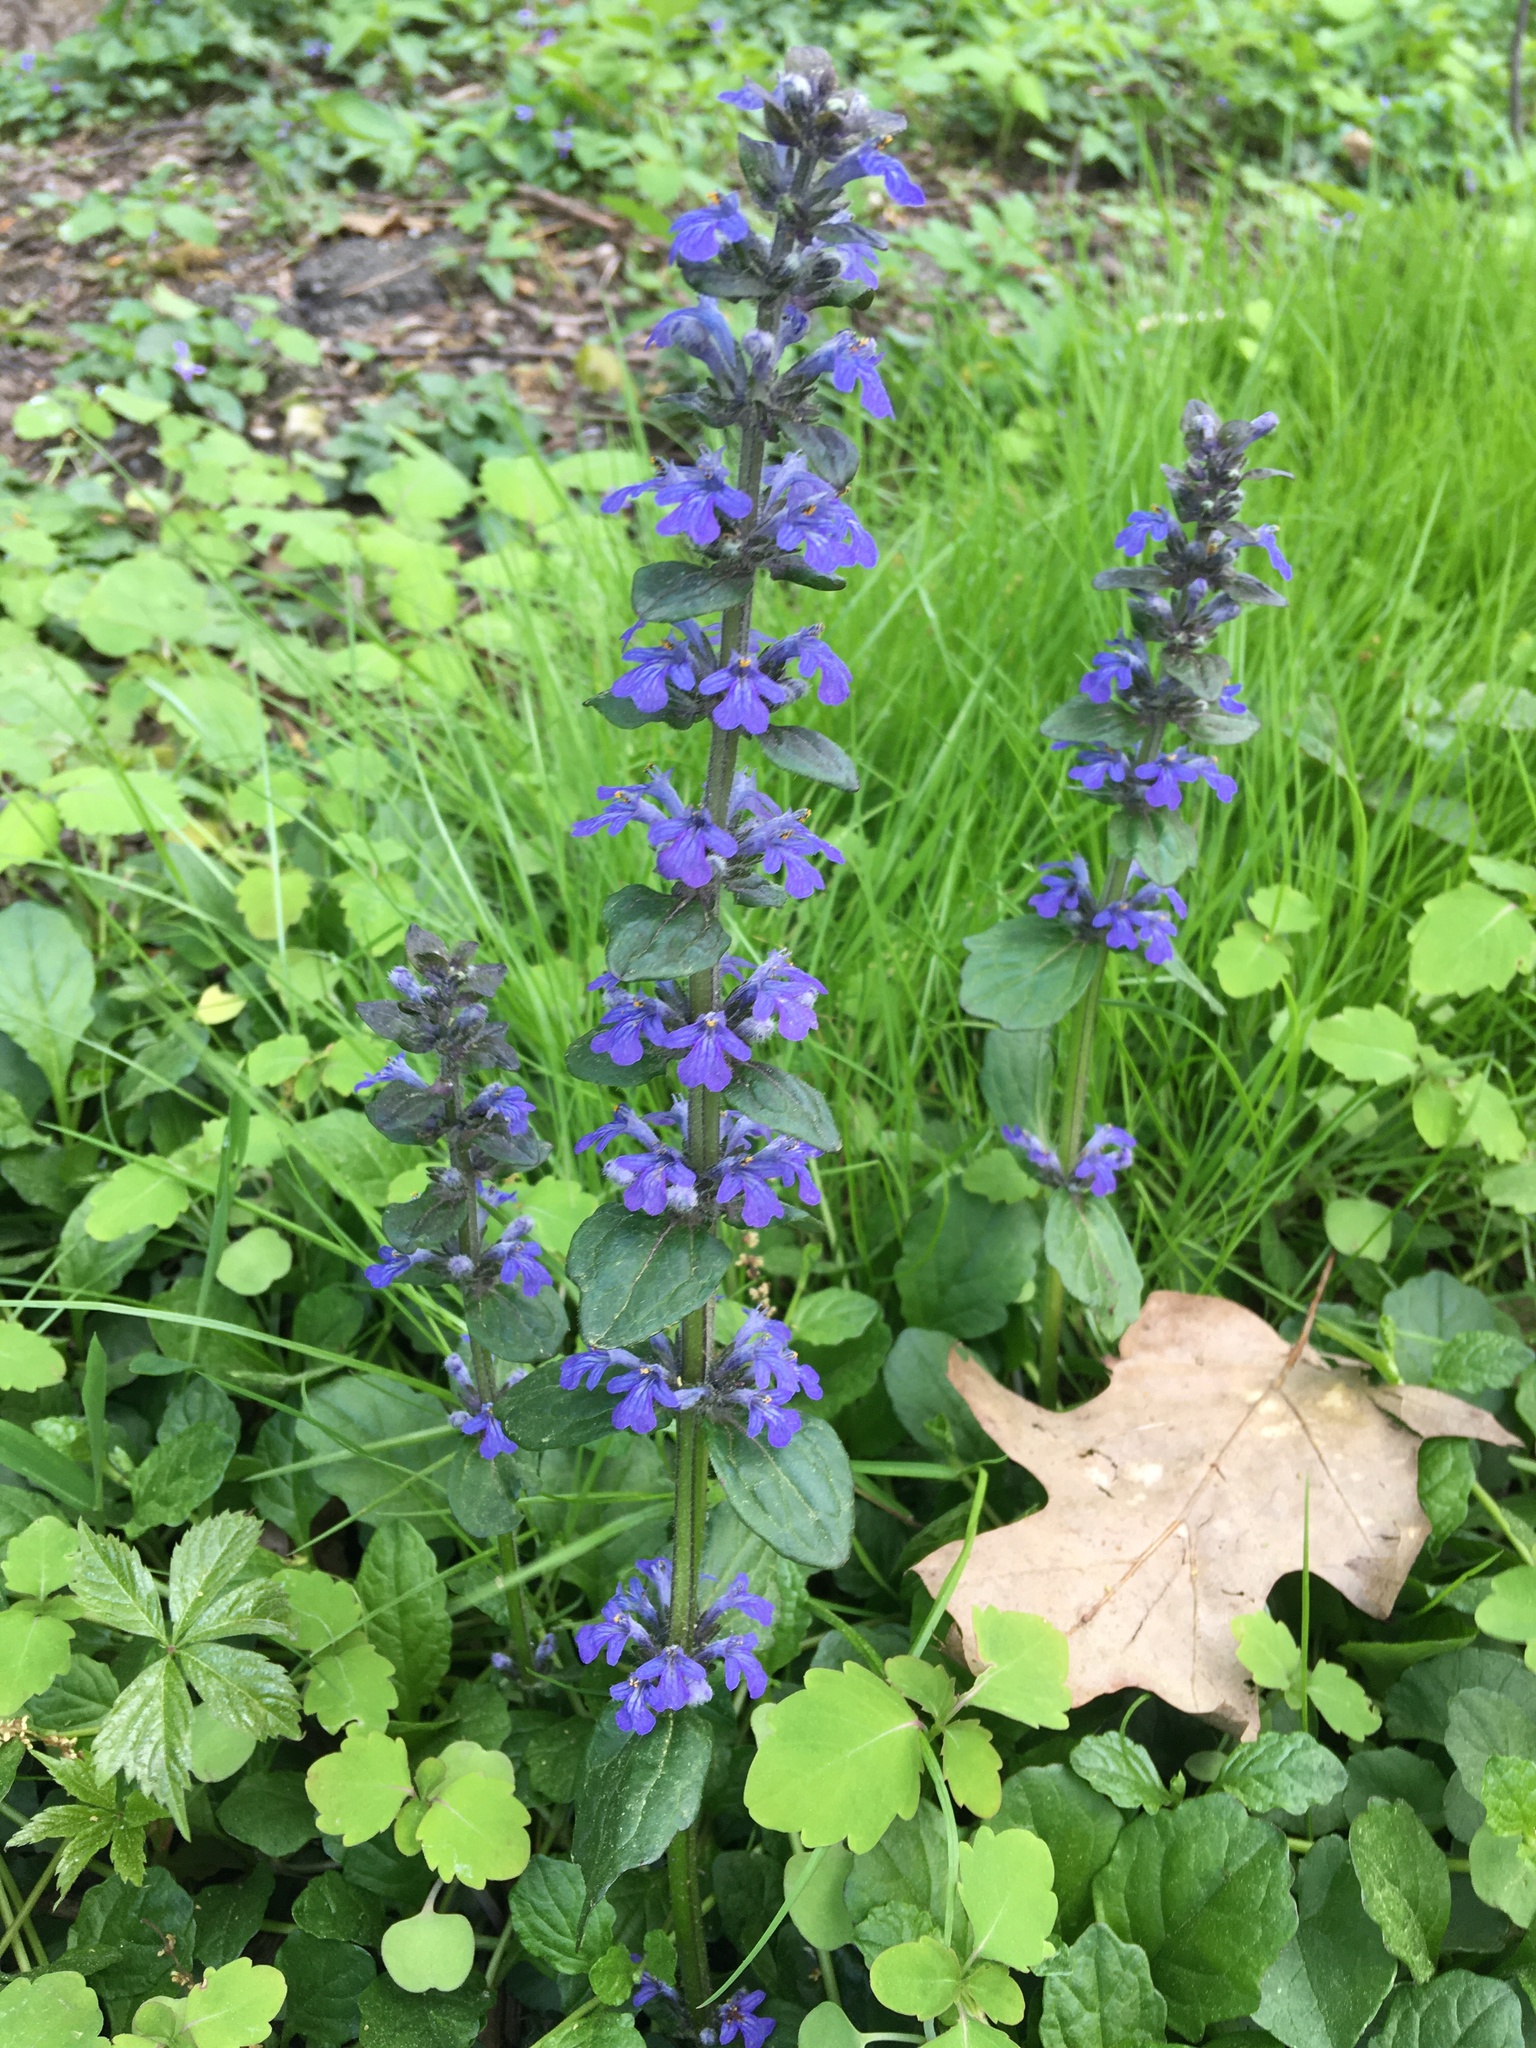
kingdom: Plantae
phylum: Tracheophyta
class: Magnoliopsida
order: Lamiales
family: Lamiaceae
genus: Ajuga
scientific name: Ajuga reptans
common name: Bugle
